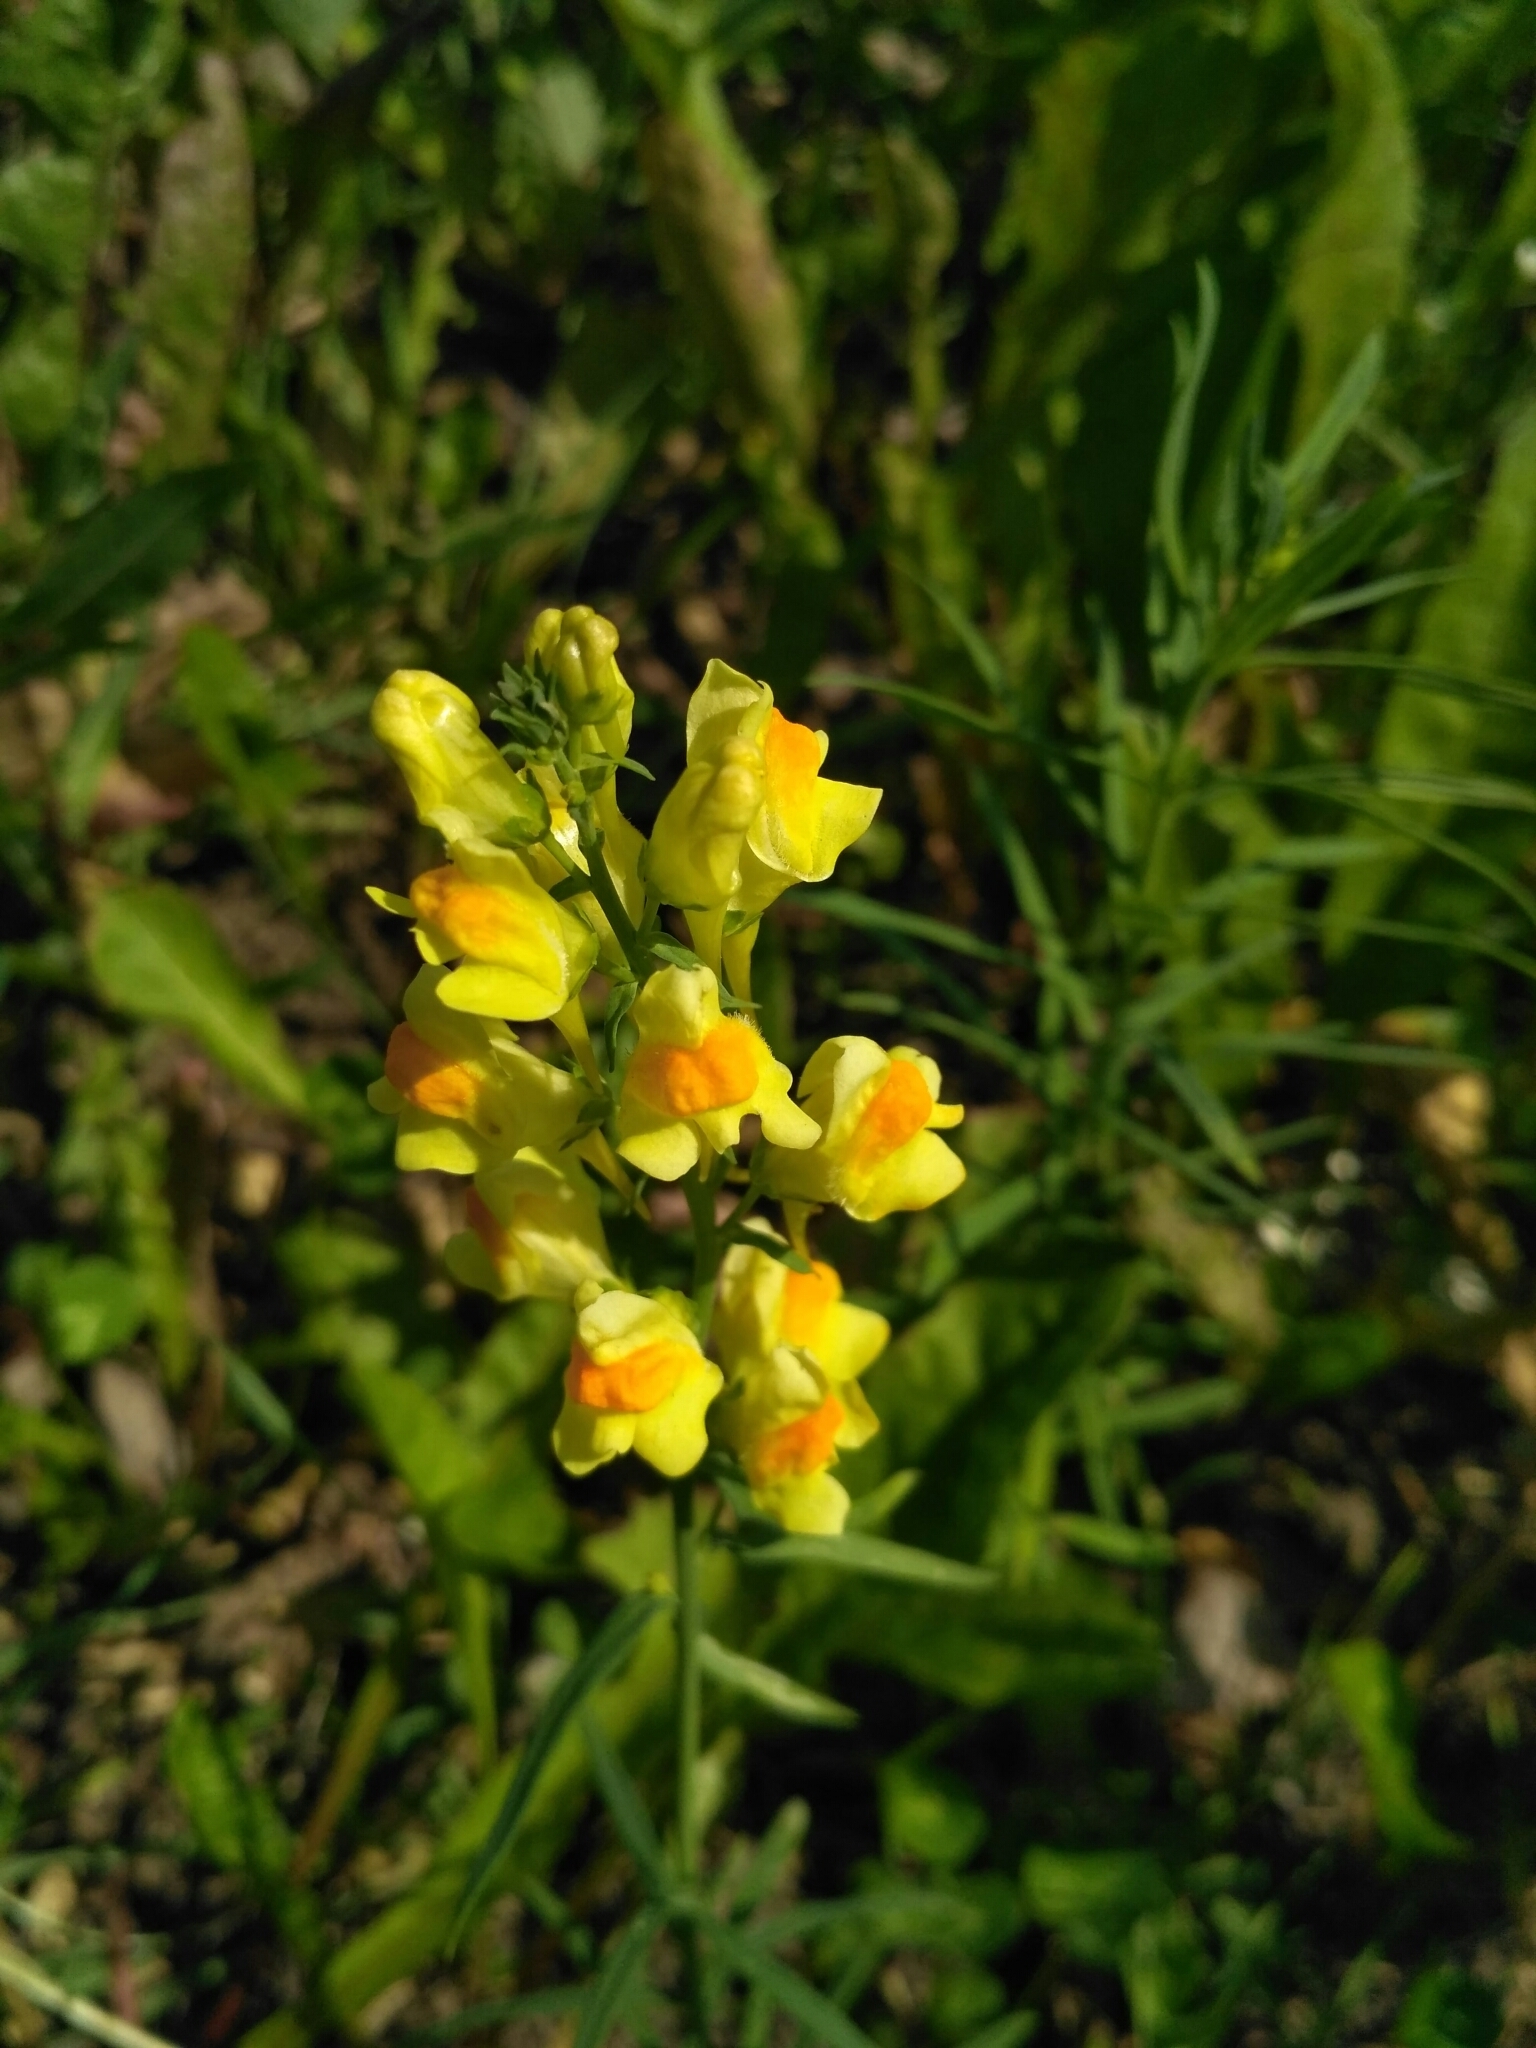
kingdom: Plantae
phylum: Tracheophyta
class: Magnoliopsida
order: Lamiales
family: Plantaginaceae
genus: Linaria
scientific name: Linaria vulgaris
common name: Butter and eggs
